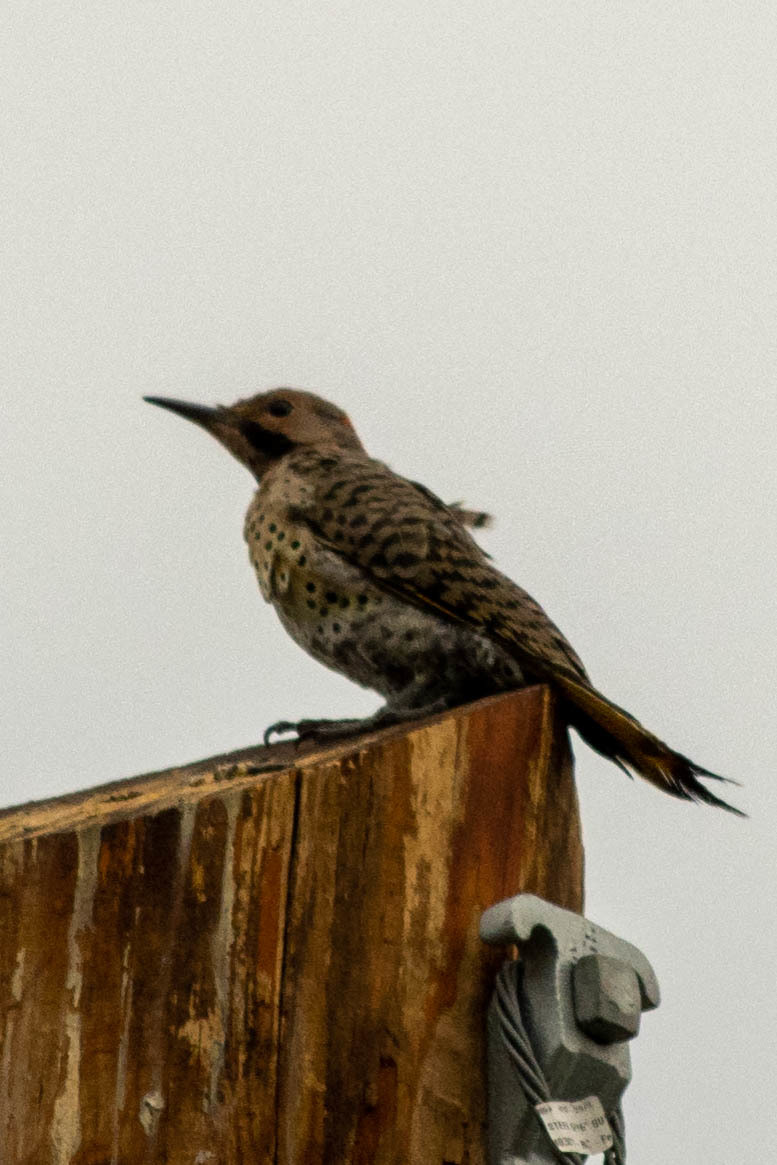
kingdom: Animalia
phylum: Chordata
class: Aves
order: Piciformes
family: Picidae
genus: Colaptes
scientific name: Colaptes auratus
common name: Northern flicker
